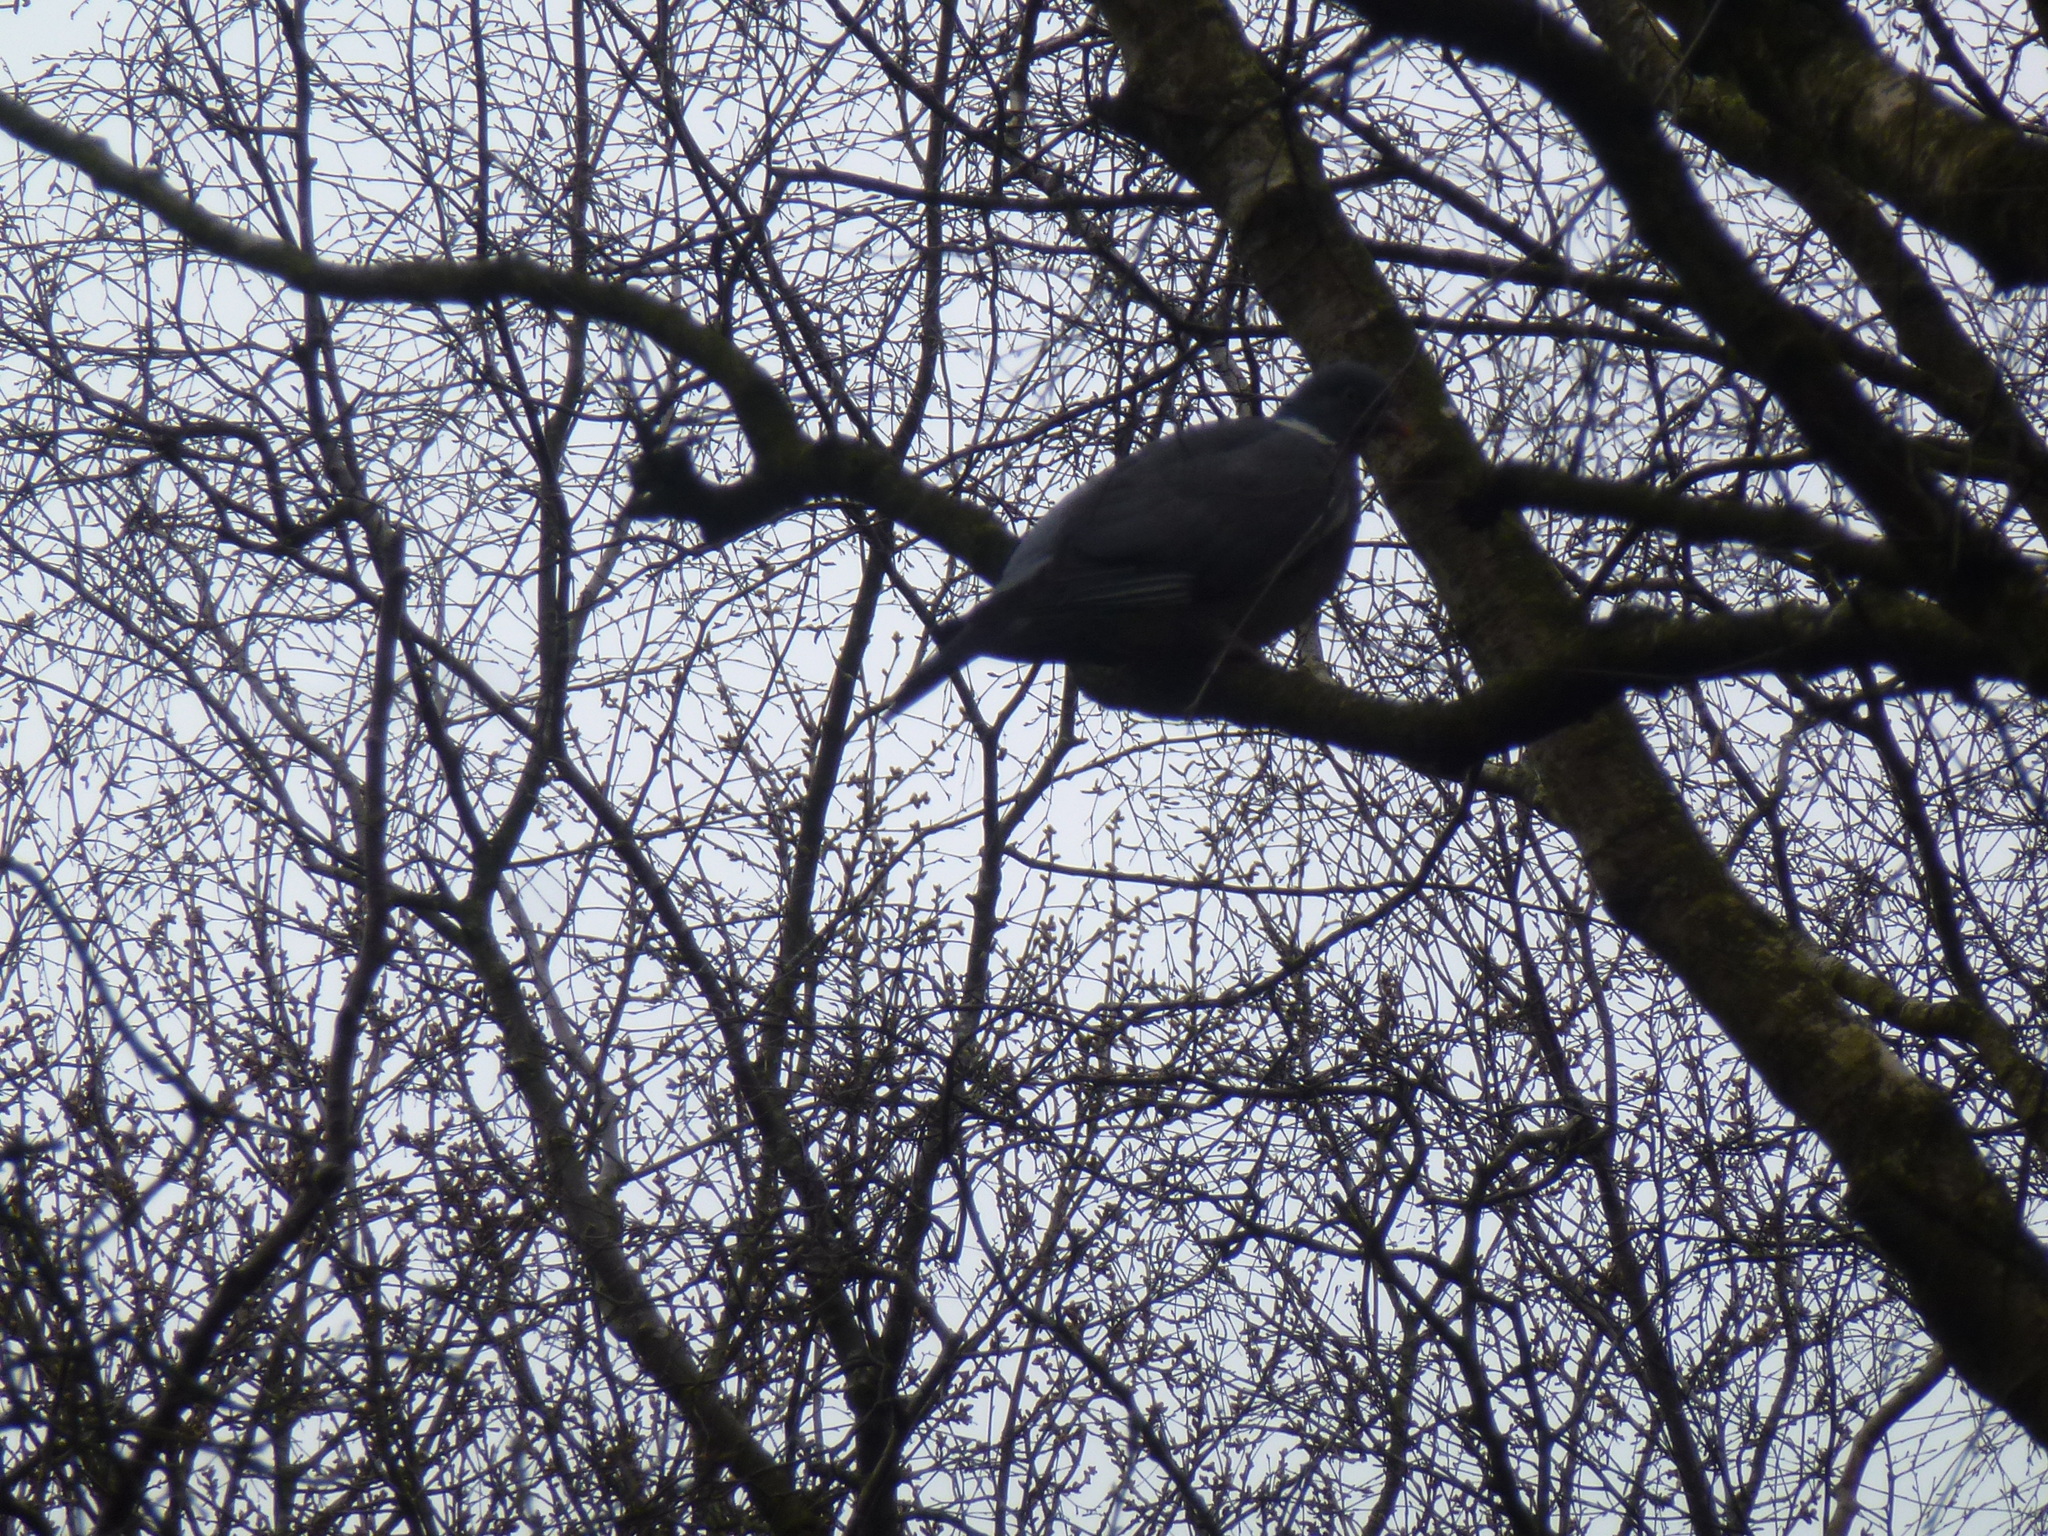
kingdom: Animalia
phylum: Chordata
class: Aves
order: Columbiformes
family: Columbidae
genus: Columba
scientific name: Columba palumbus
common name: Common wood pigeon
